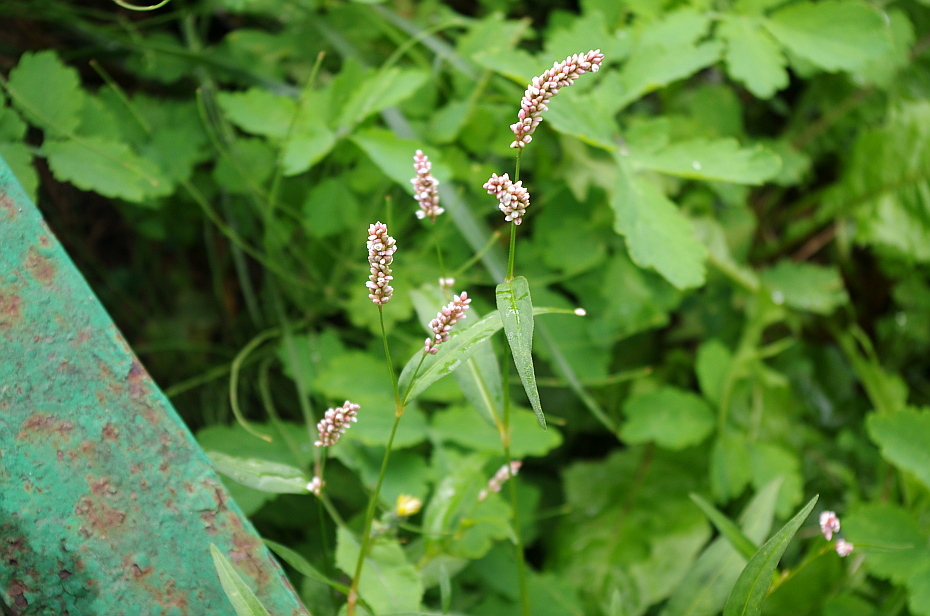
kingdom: Plantae
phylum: Tracheophyta
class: Magnoliopsida
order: Caryophyllales
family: Polygonaceae
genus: Persicaria
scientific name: Persicaria maculosa
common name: Redshank
